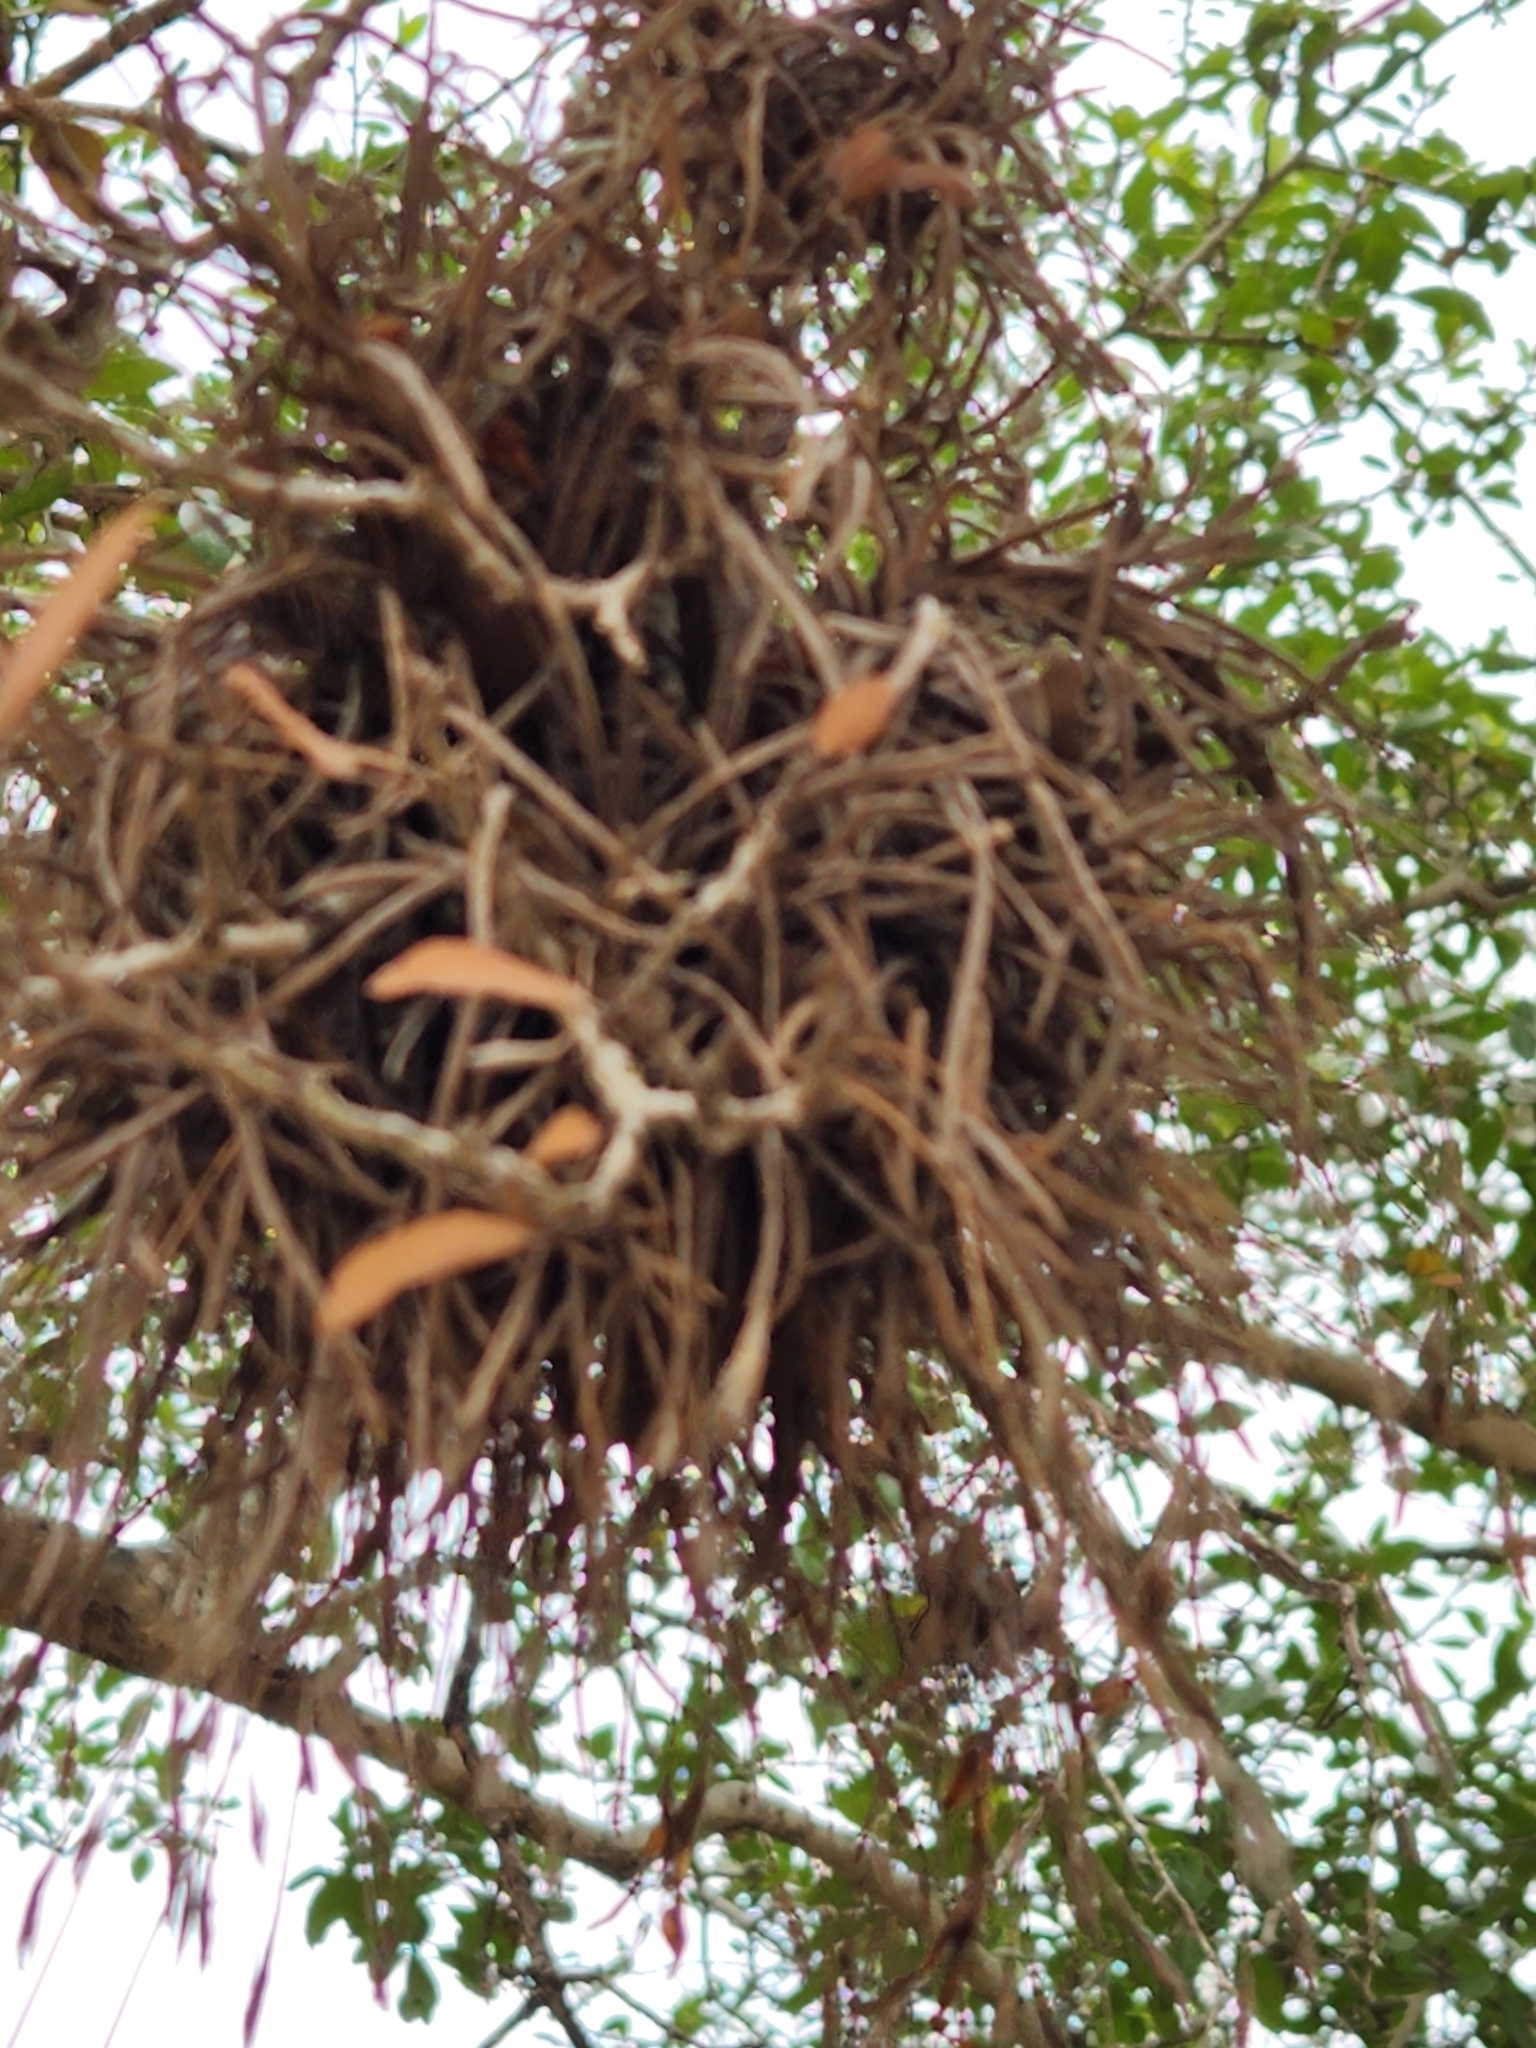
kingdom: Plantae
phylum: Tracheophyta
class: Liliopsida
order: Poales
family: Bromeliaceae
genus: Tillandsia
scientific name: Tillandsia recurvata
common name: Small ballmoss
